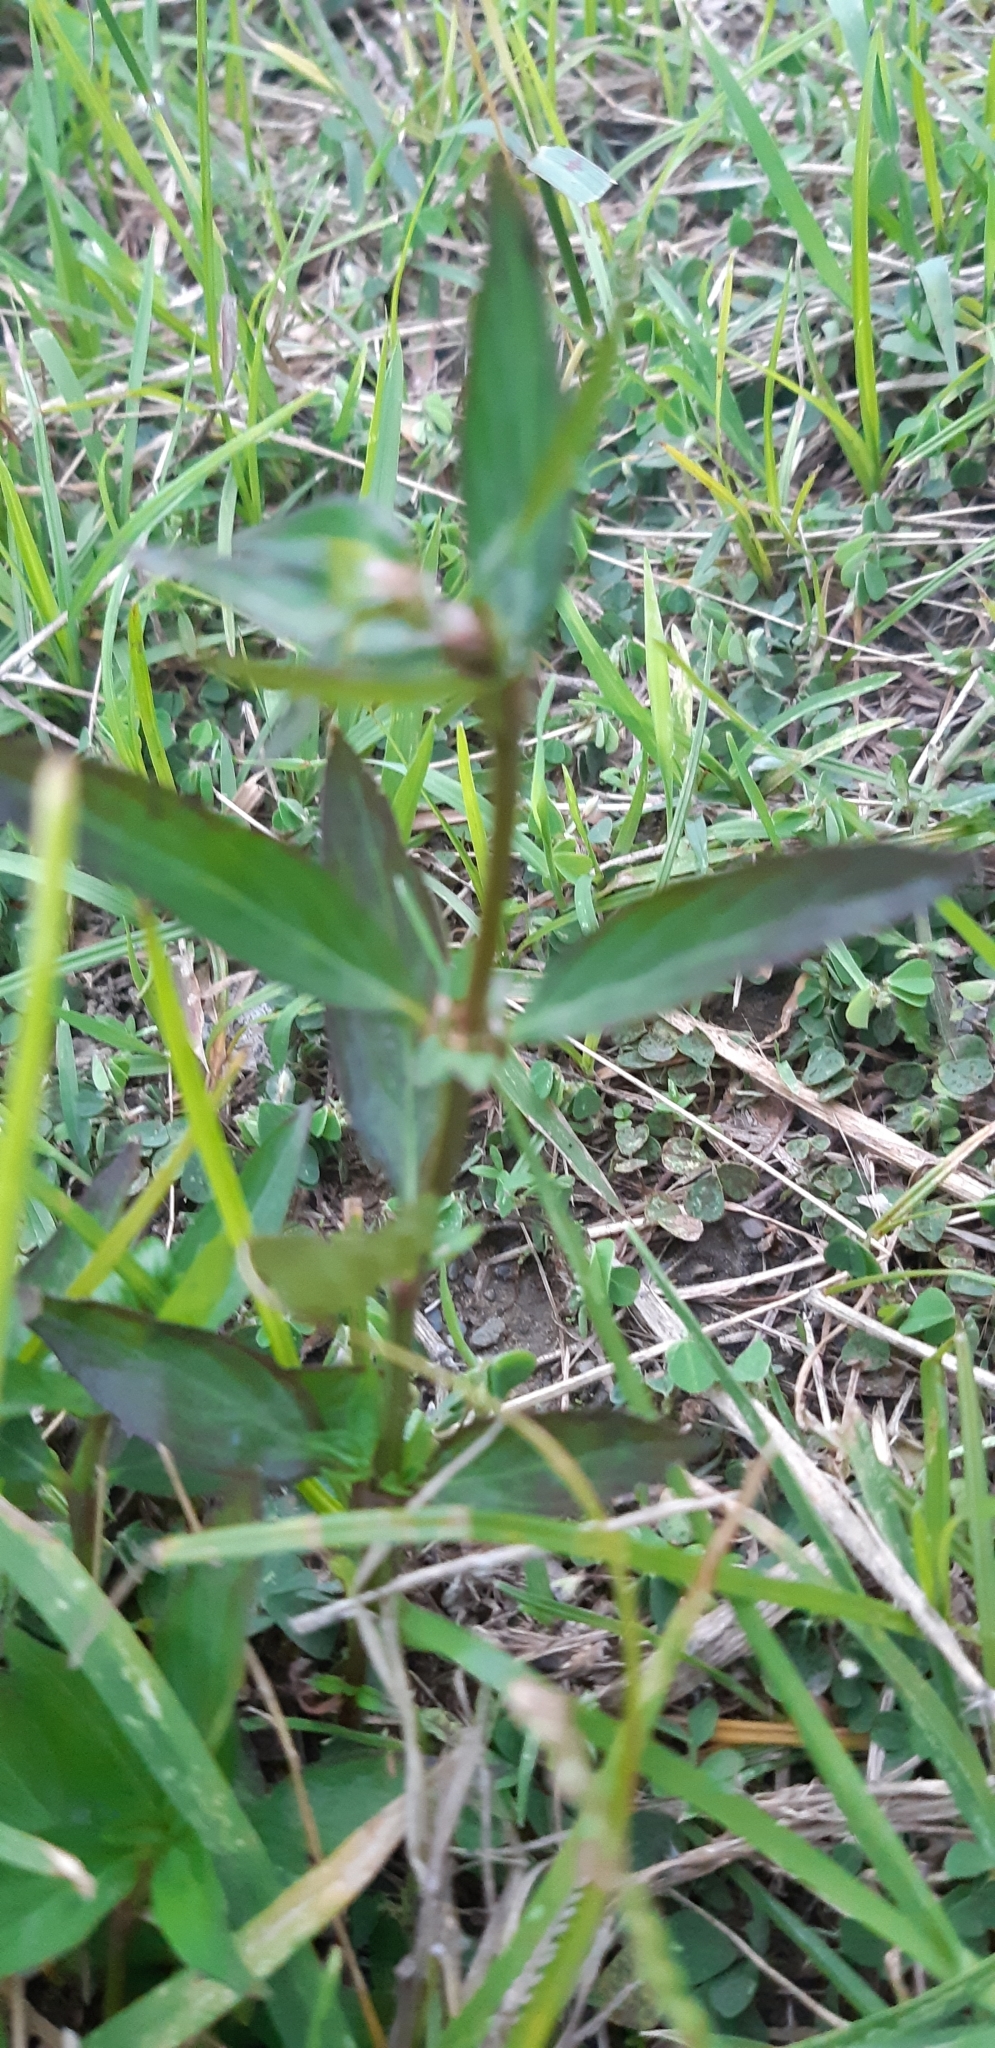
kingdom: Plantae
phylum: Tracheophyta
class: Magnoliopsida
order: Gentianales
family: Rubiaceae
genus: Spermacoce
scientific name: Spermacoce remota
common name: Woodland false buttonweed
